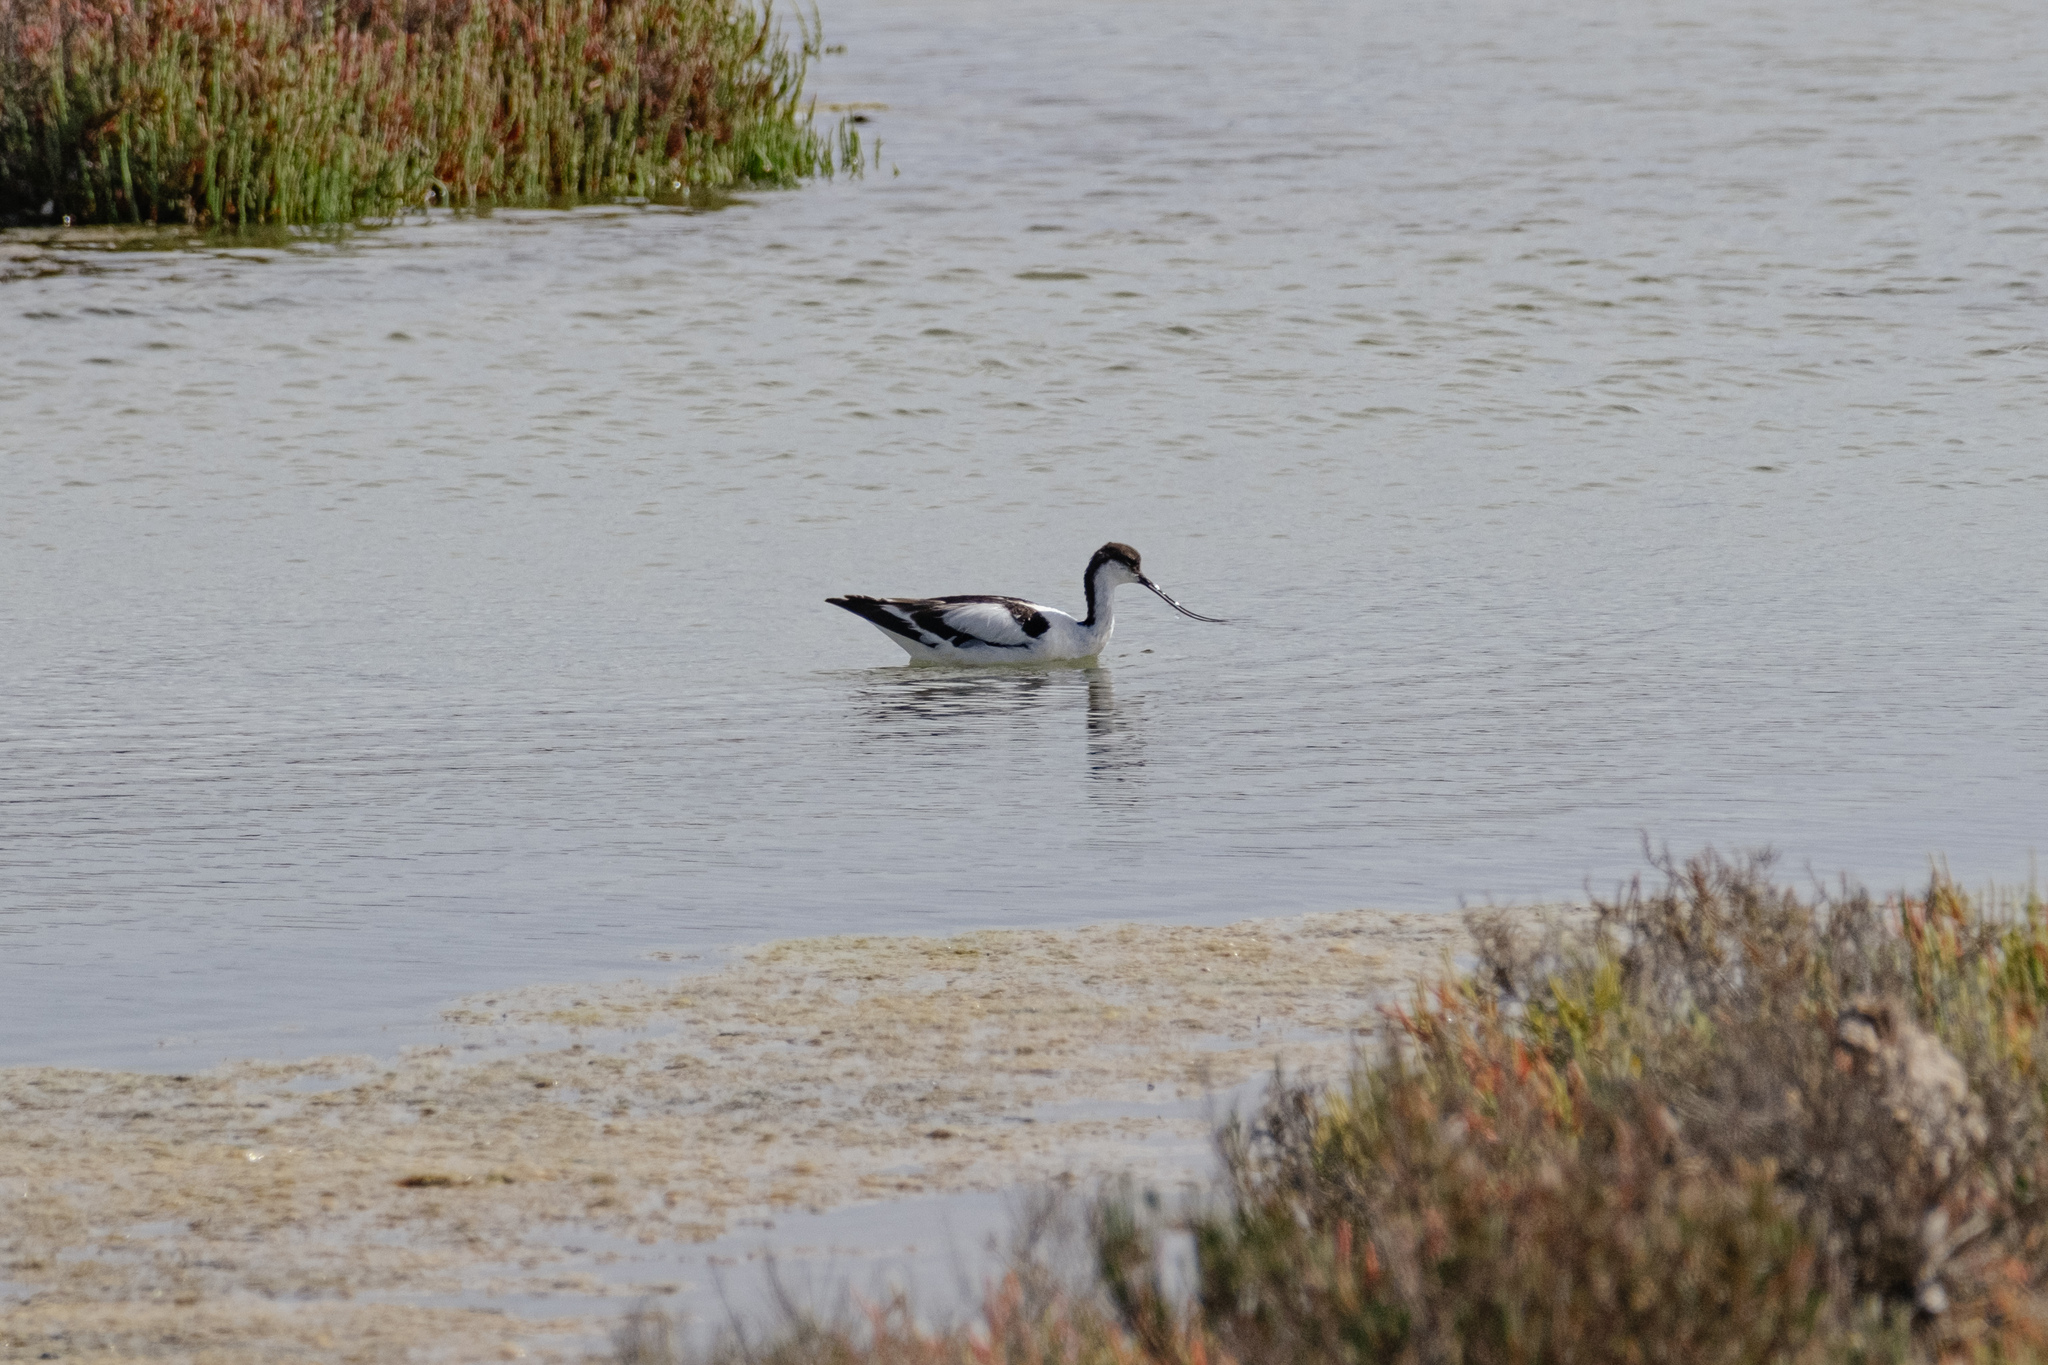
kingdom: Animalia
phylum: Chordata
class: Aves
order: Charadriiformes
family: Recurvirostridae
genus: Recurvirostra
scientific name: Recurvirostra avosetta
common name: Pied avocet
